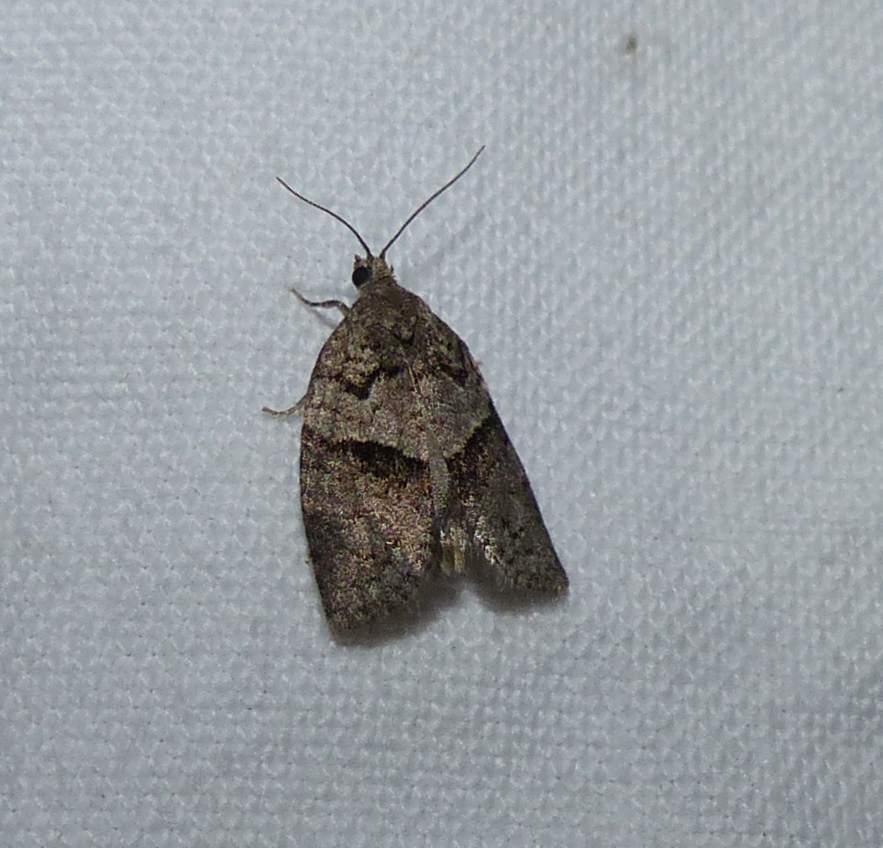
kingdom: Animalia
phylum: Arthropoda
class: Insecta
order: Lepidoptera
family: Tortricidae
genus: Syndemis
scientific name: Syndemis afflictana
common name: Gray leafroller moth
